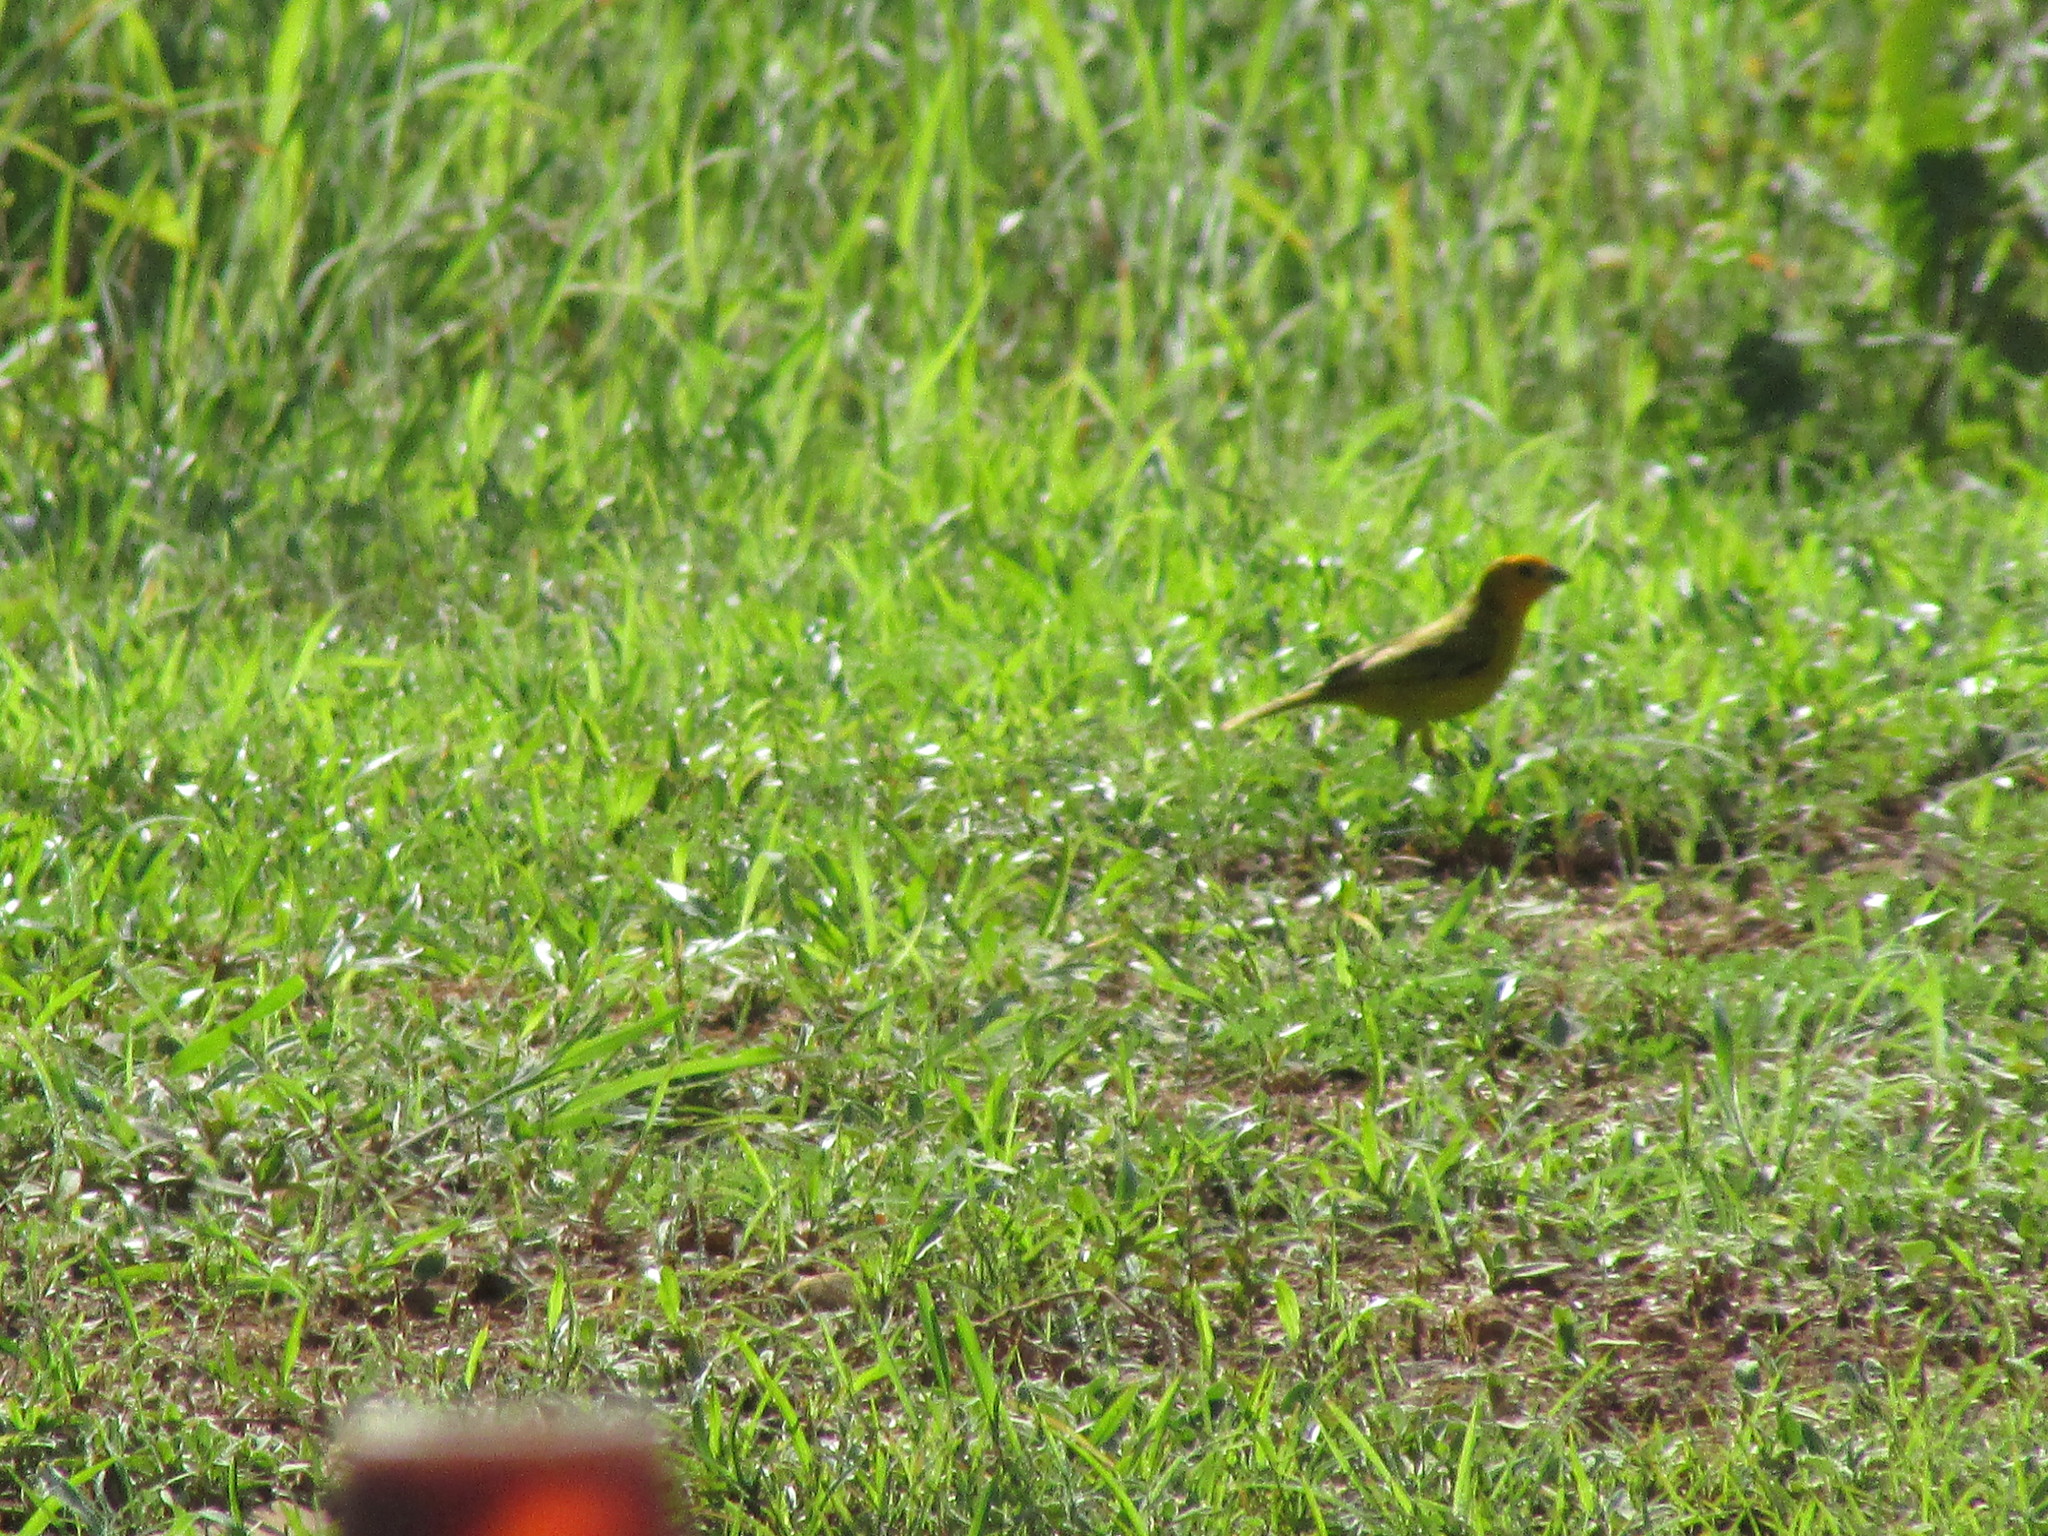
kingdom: Animalia
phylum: Chordata
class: Aves
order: Passeriformes
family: Thraupidae
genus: Sicalis
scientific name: Sicalis flaveola
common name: Saffron finch
